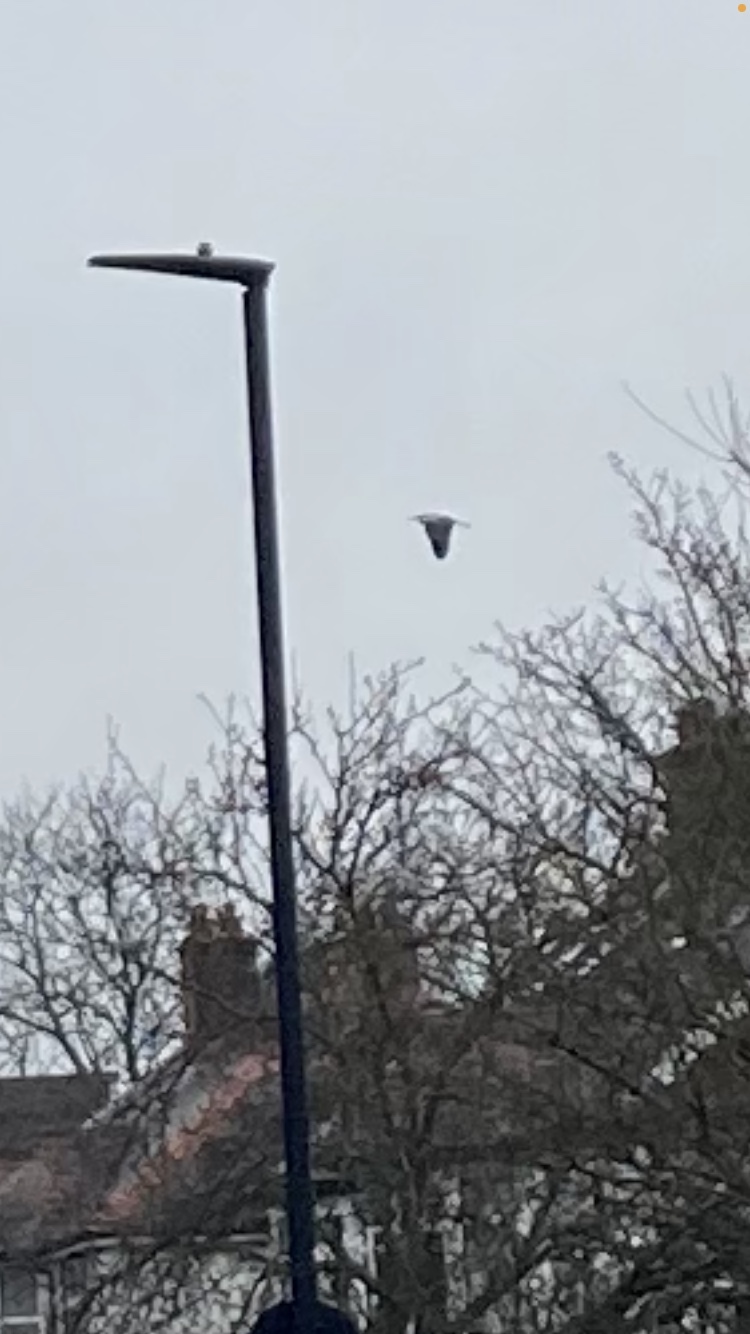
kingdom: Animalia
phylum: Chordata
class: Aves
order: Pelecaniformes
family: Ardeidae
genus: Ardea
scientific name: Ardea cinerea
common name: Grey heron
